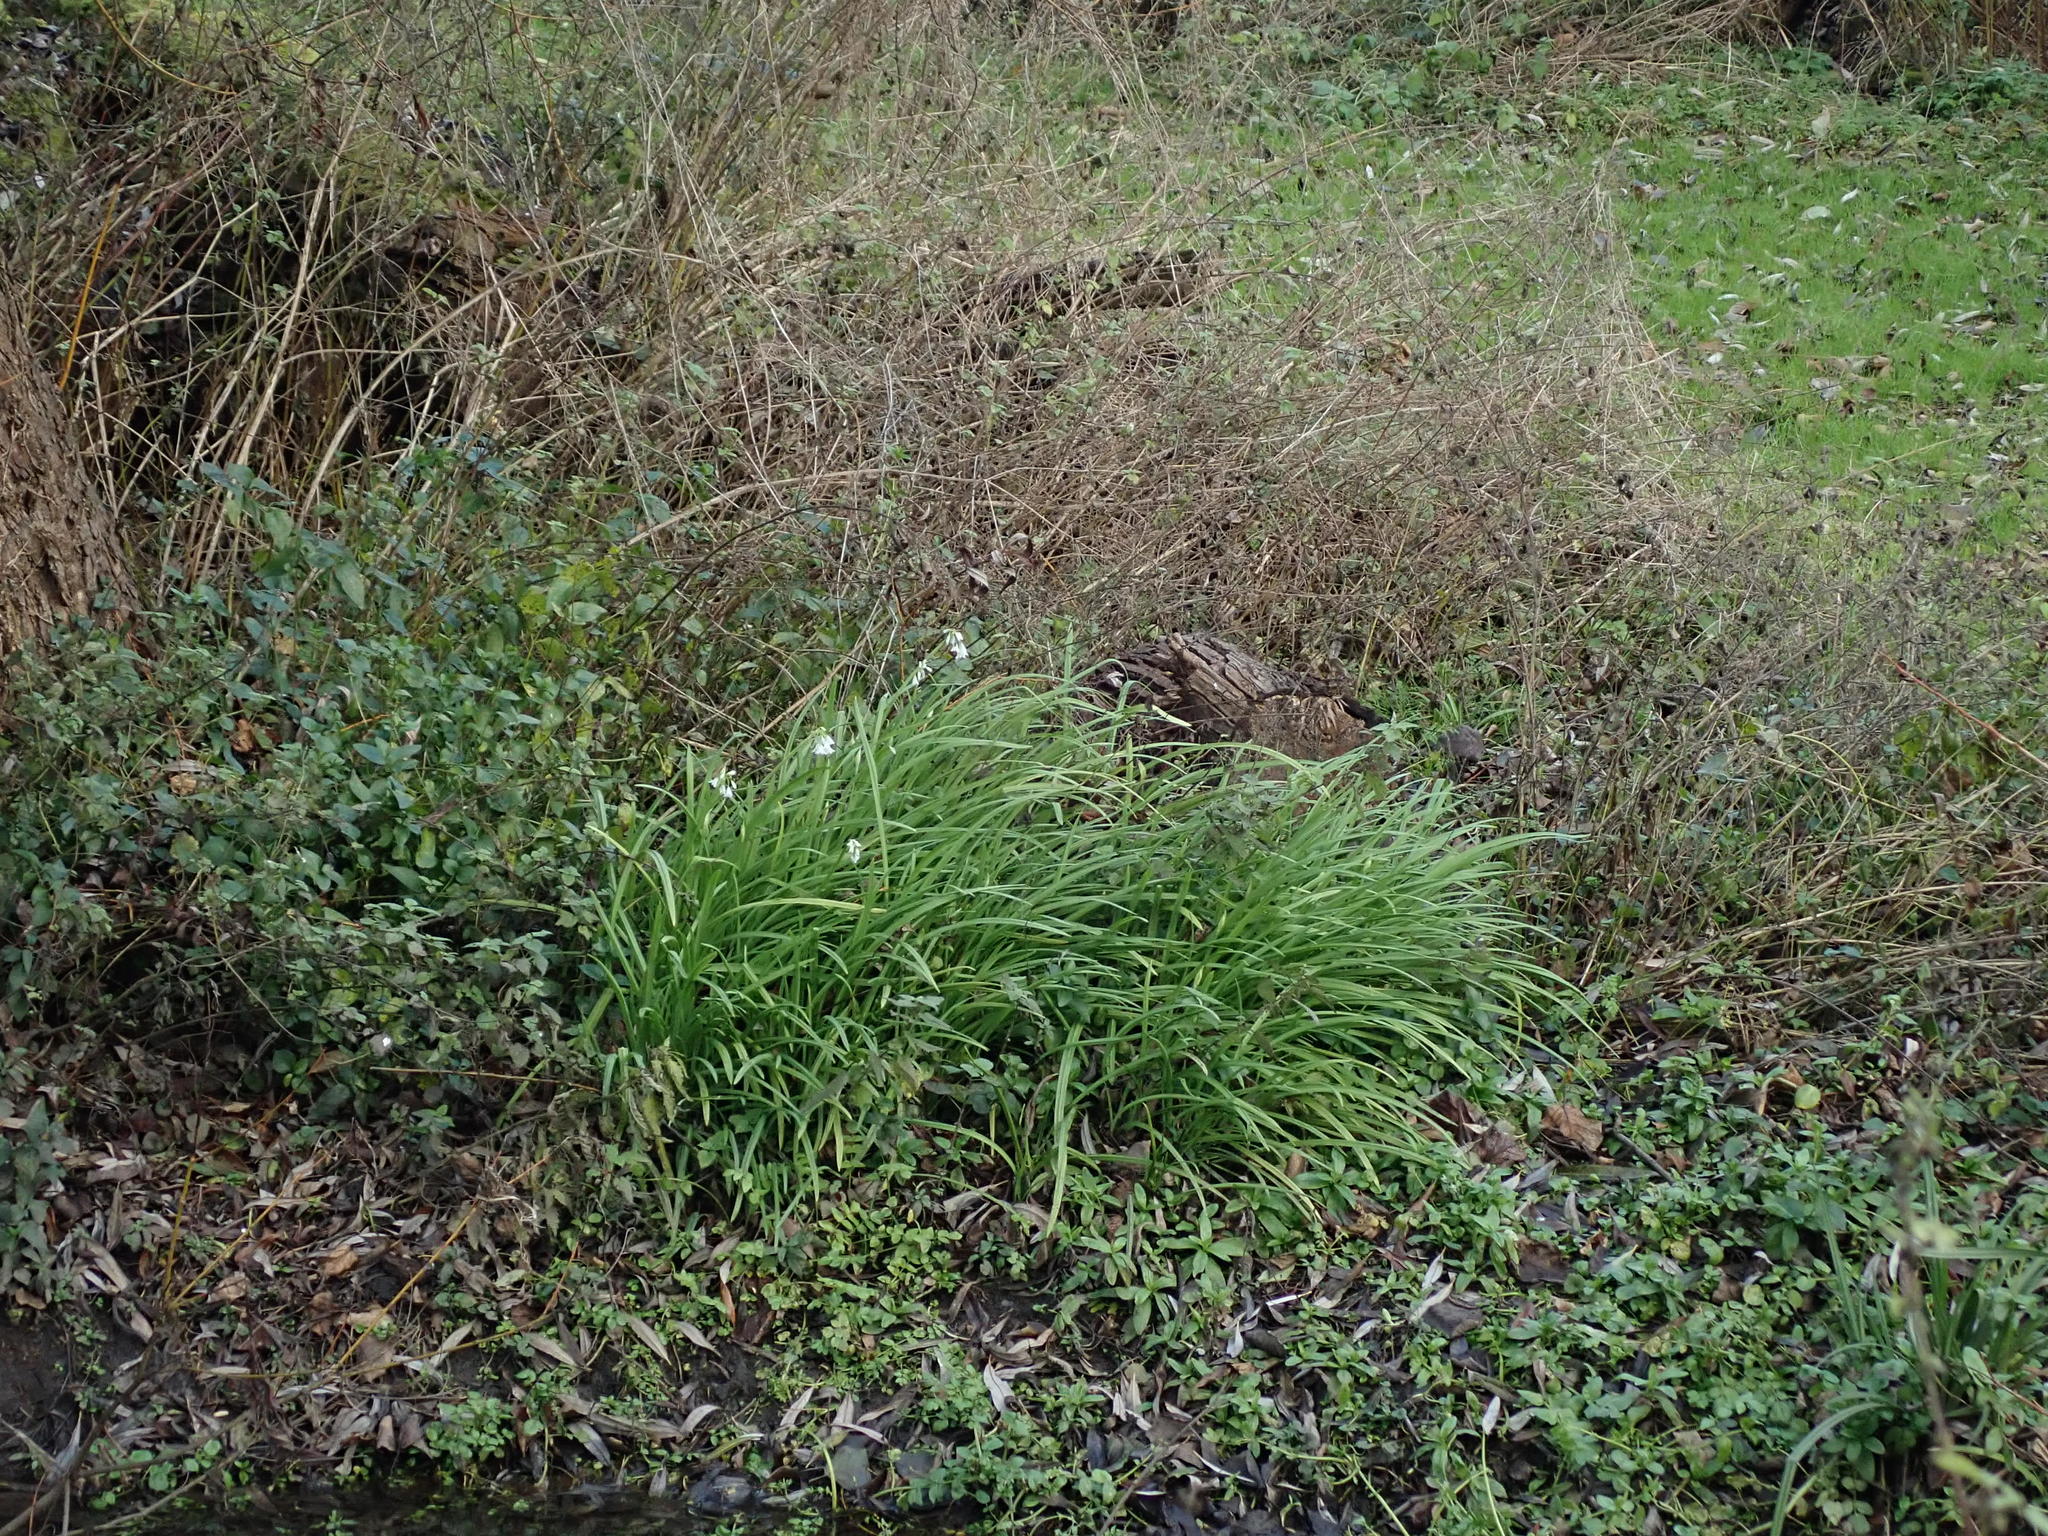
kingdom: Plantae
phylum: Tracheophyta
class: Liliopsida
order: Asparagales
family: Amaryllidaceae
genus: Allium
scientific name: Allium triquetrum
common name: Three-cornered garlic
